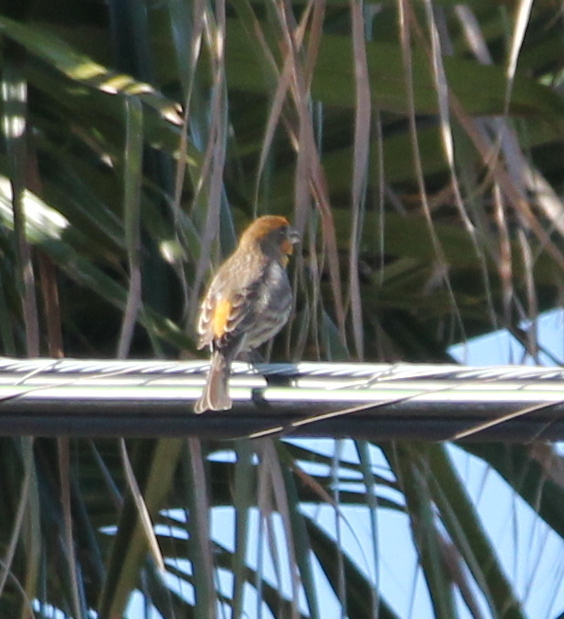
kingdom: Animalia
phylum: Chordata
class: Aves
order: Passeriformes
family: Fringillidae
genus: Haemorhous
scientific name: Haemorhous mexicanus
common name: House finch
